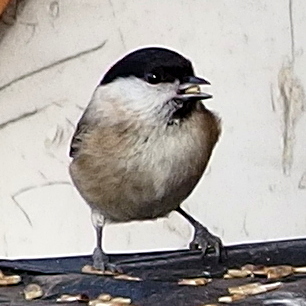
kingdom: Animalia
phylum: Chordata
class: Aves
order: Passeriformes
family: Paridae
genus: Poecile
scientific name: Poecile palustris
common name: Marsh tit
